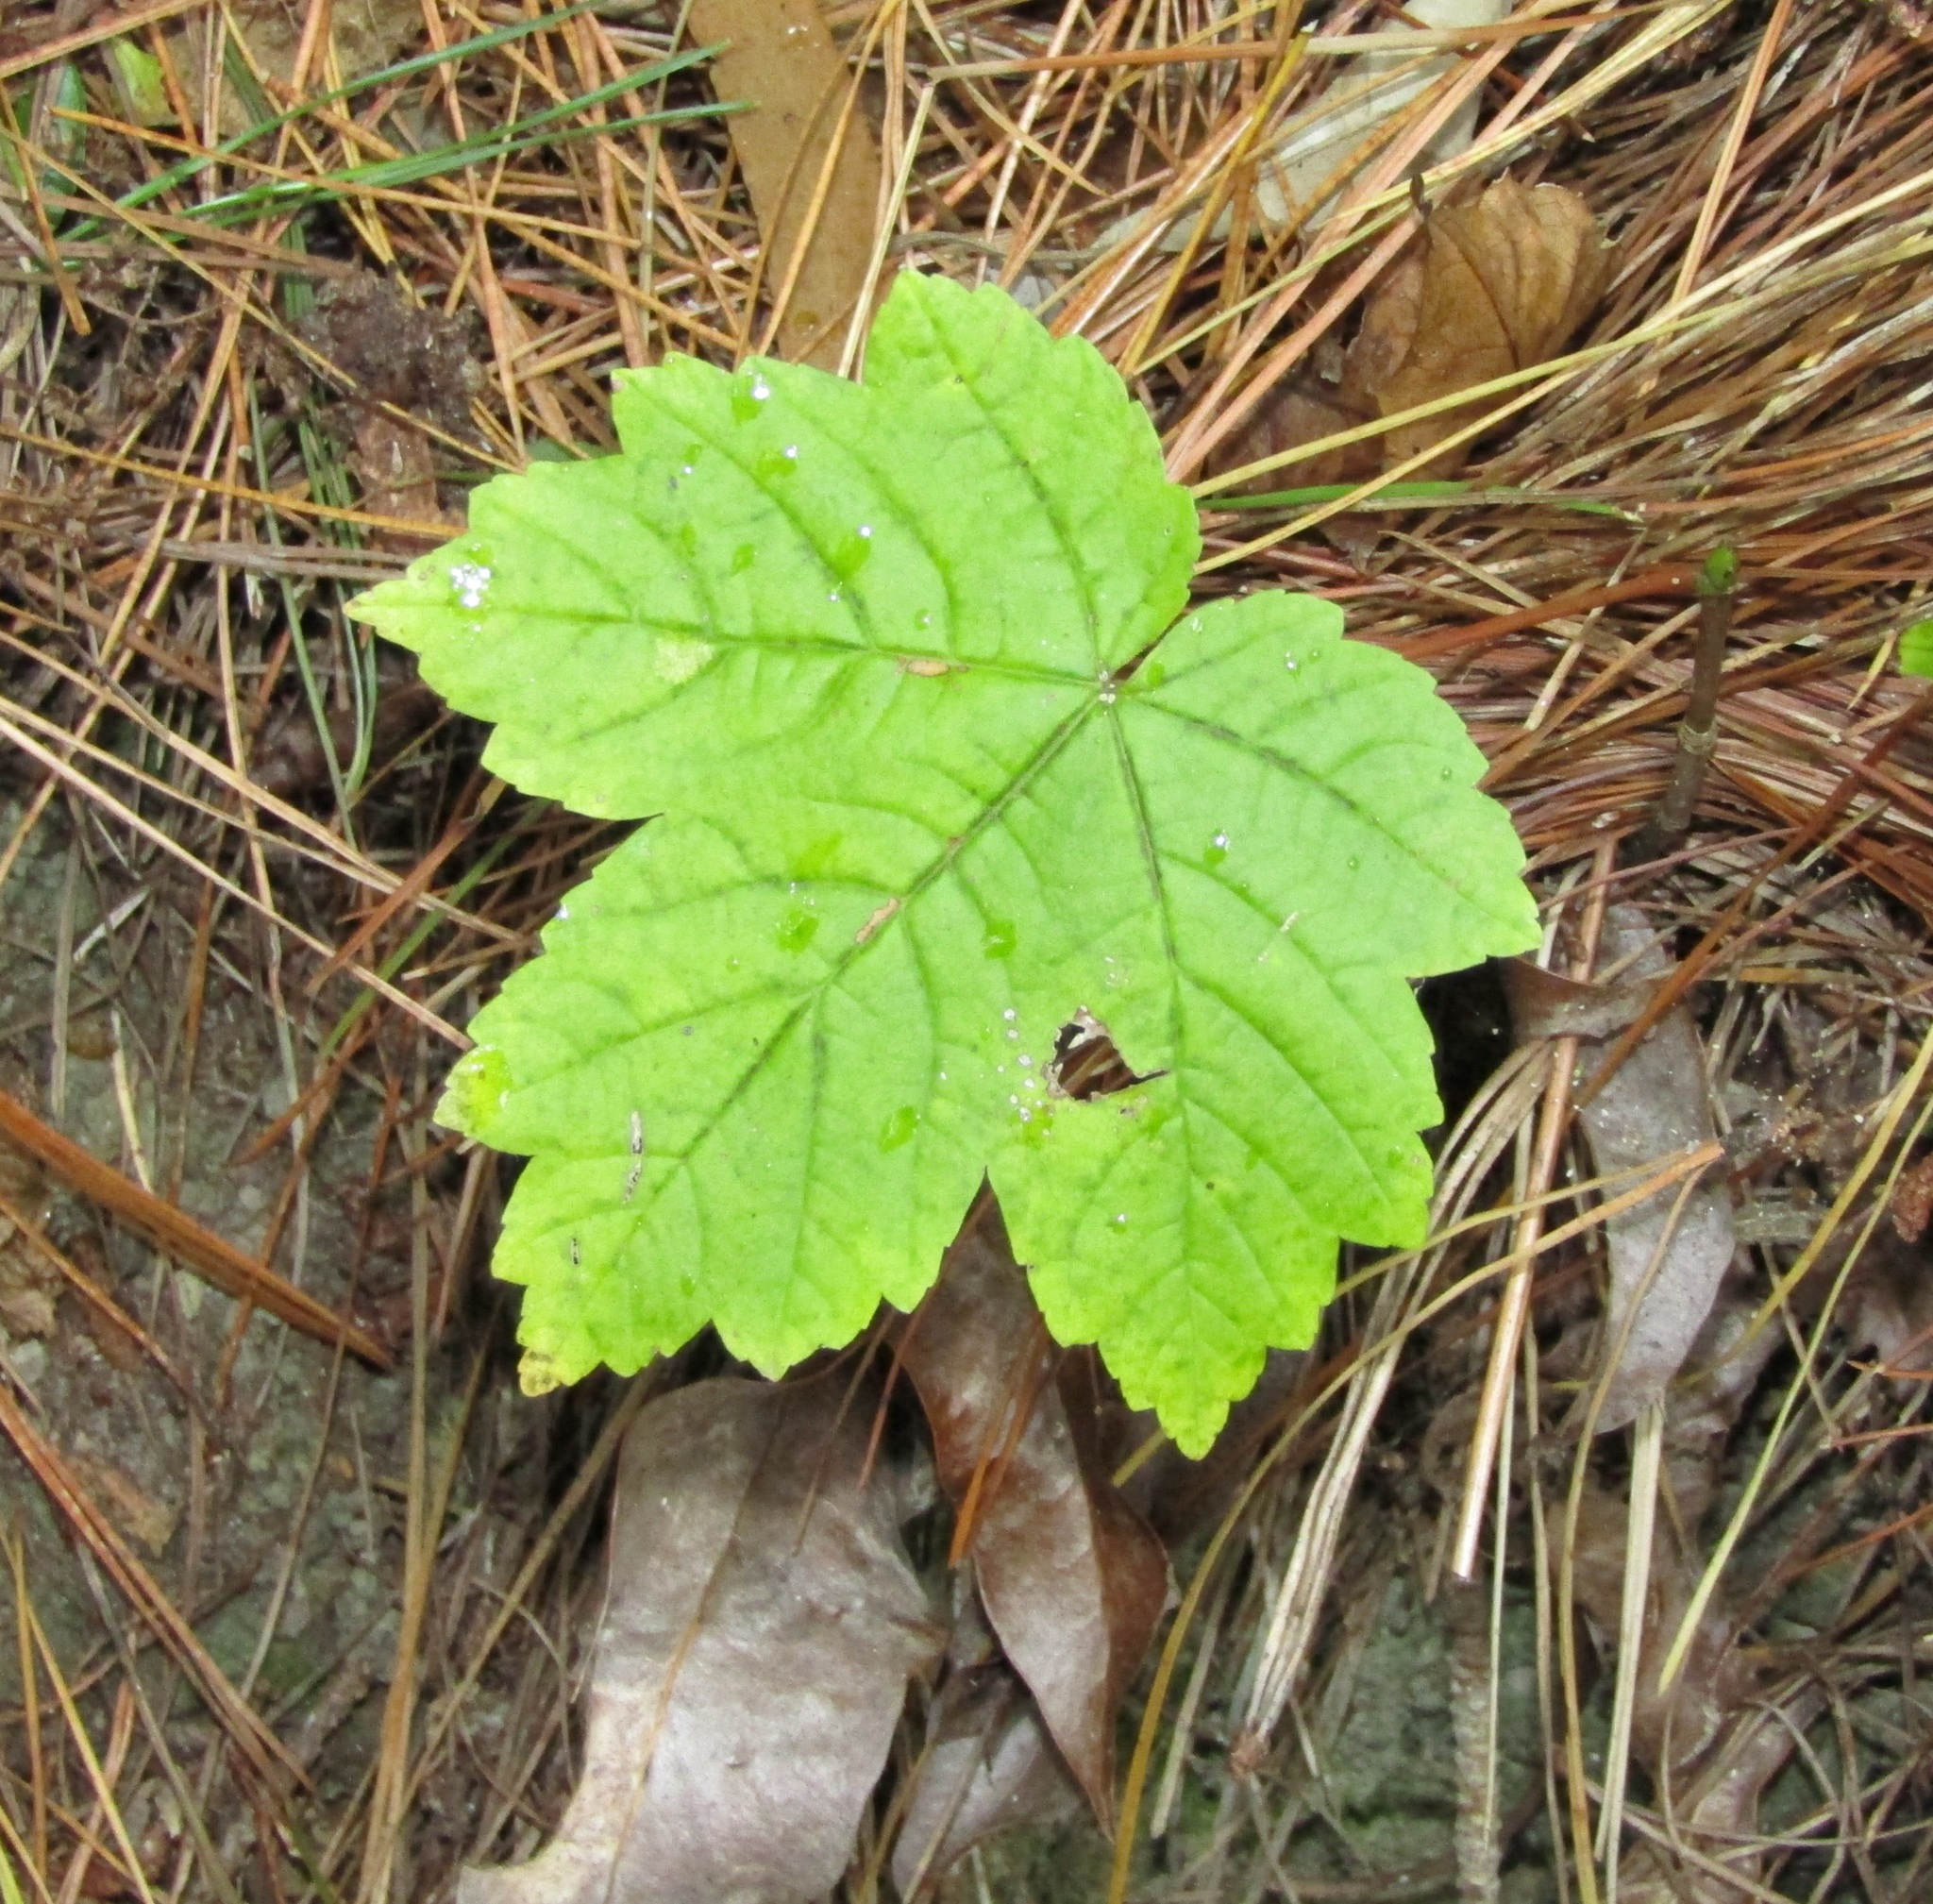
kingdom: Plantae
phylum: Tracheophyta
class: Magnoliopsida
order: Sapindales
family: Sapindaceae
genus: Acer
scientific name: Acer pseudoplatanus
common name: Sycamore
